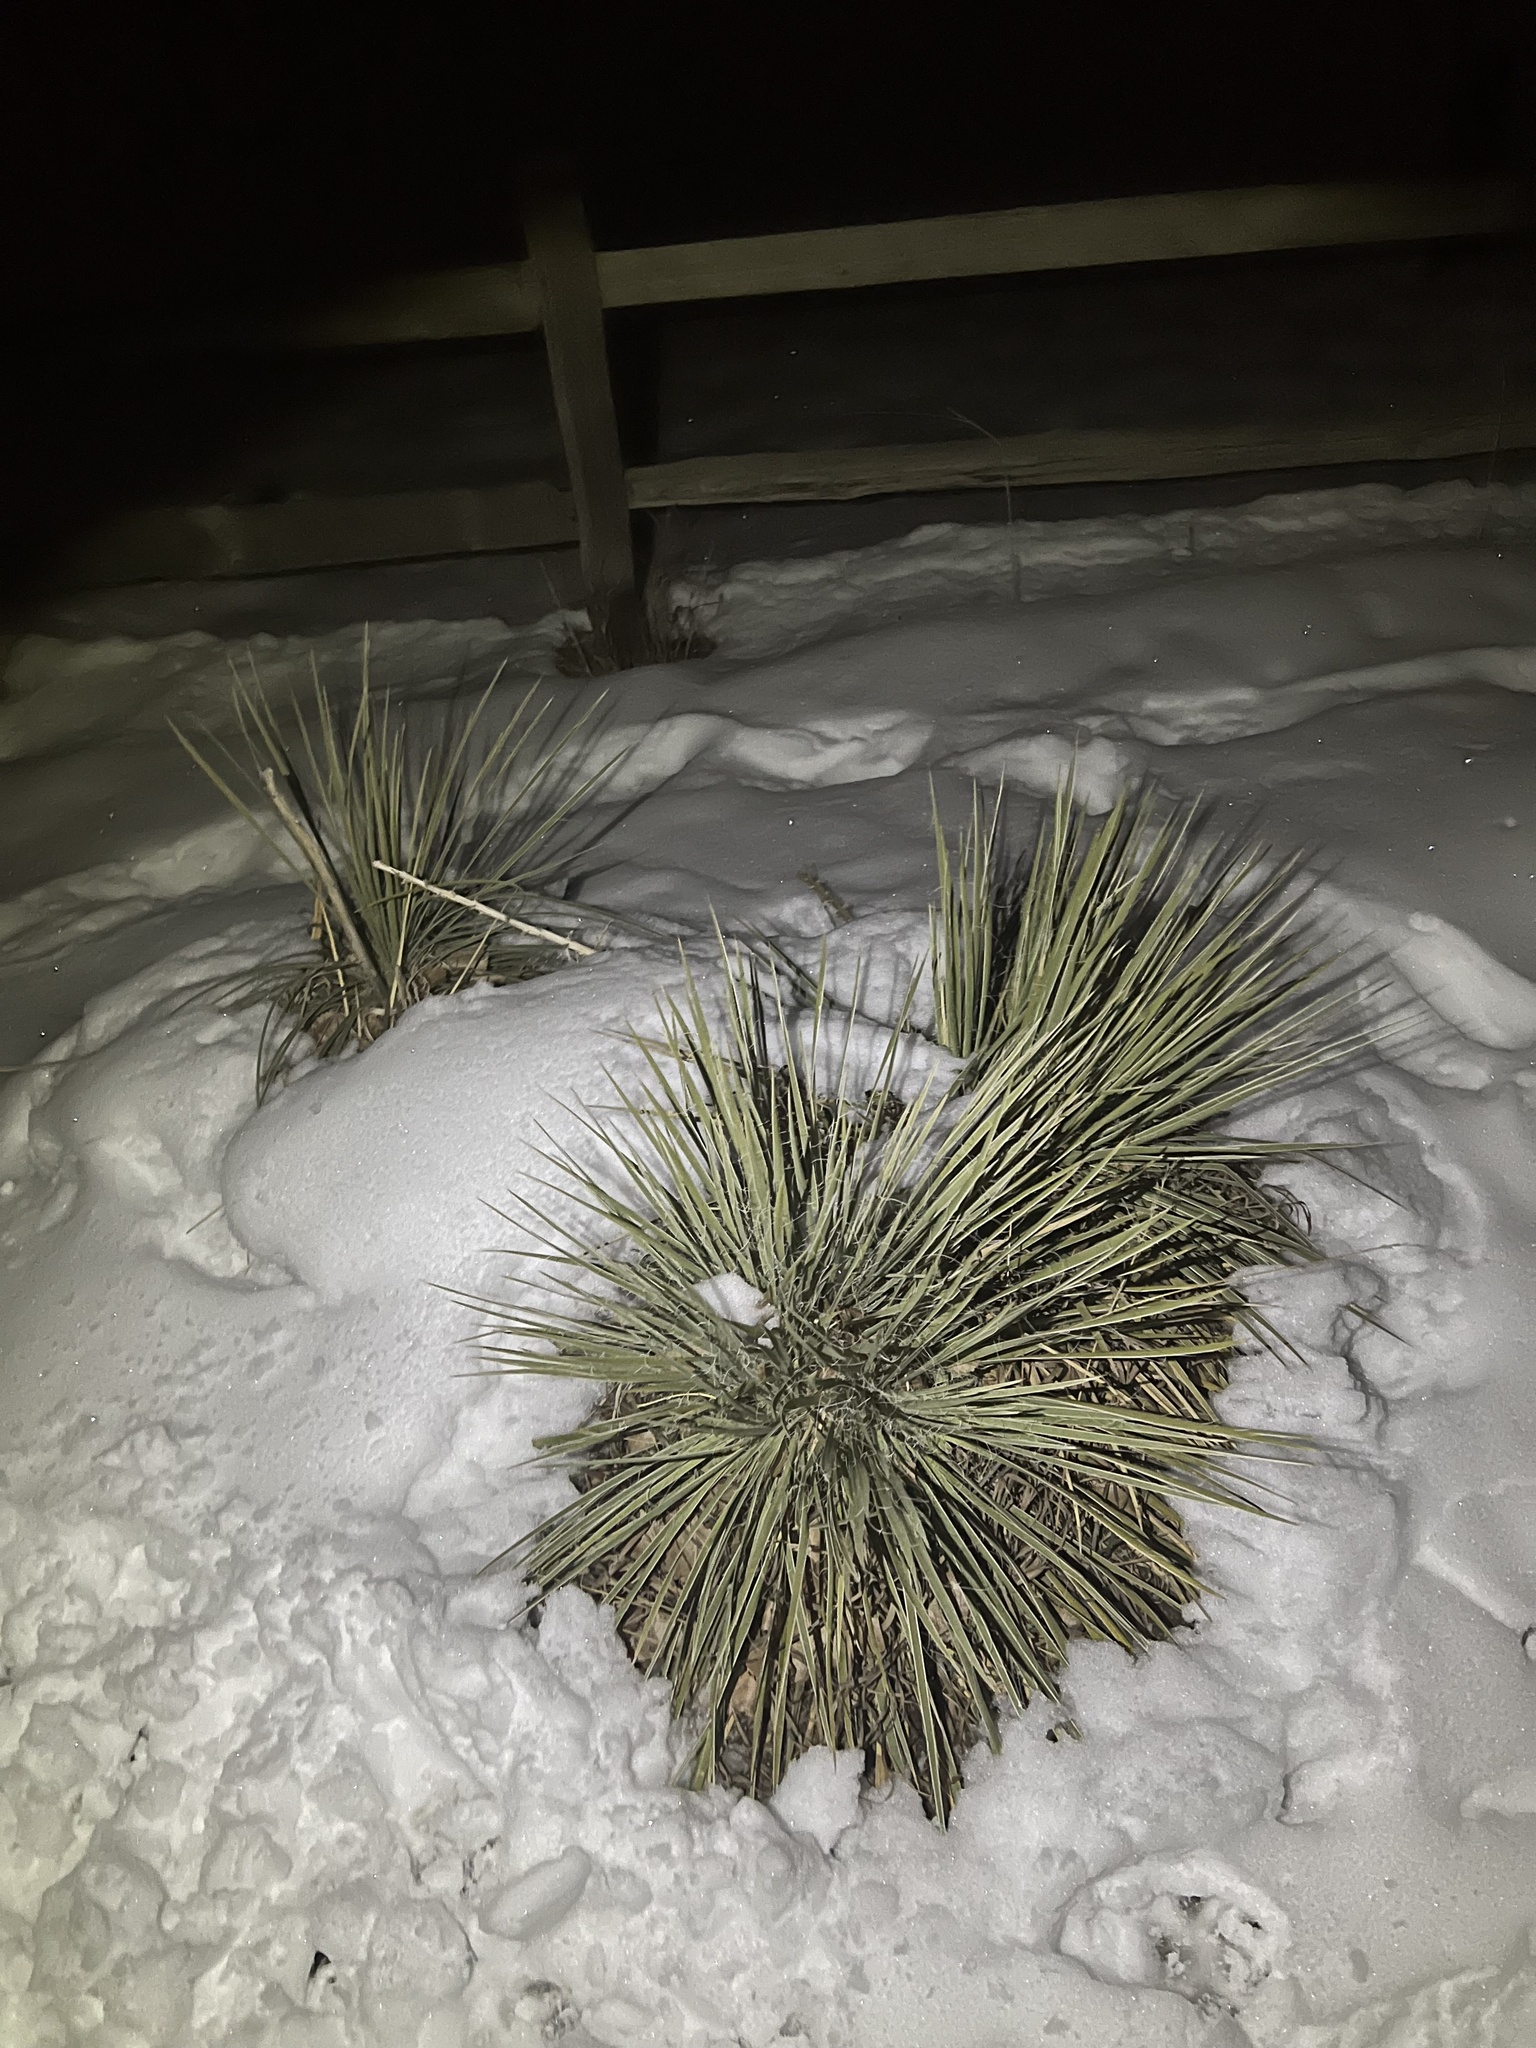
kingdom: Plantae
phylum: Tracheophyta
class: Liliopsida
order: Asparagales
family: Asparagaceae
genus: Yucca
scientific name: Yucca glauca
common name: Great plains yucca
